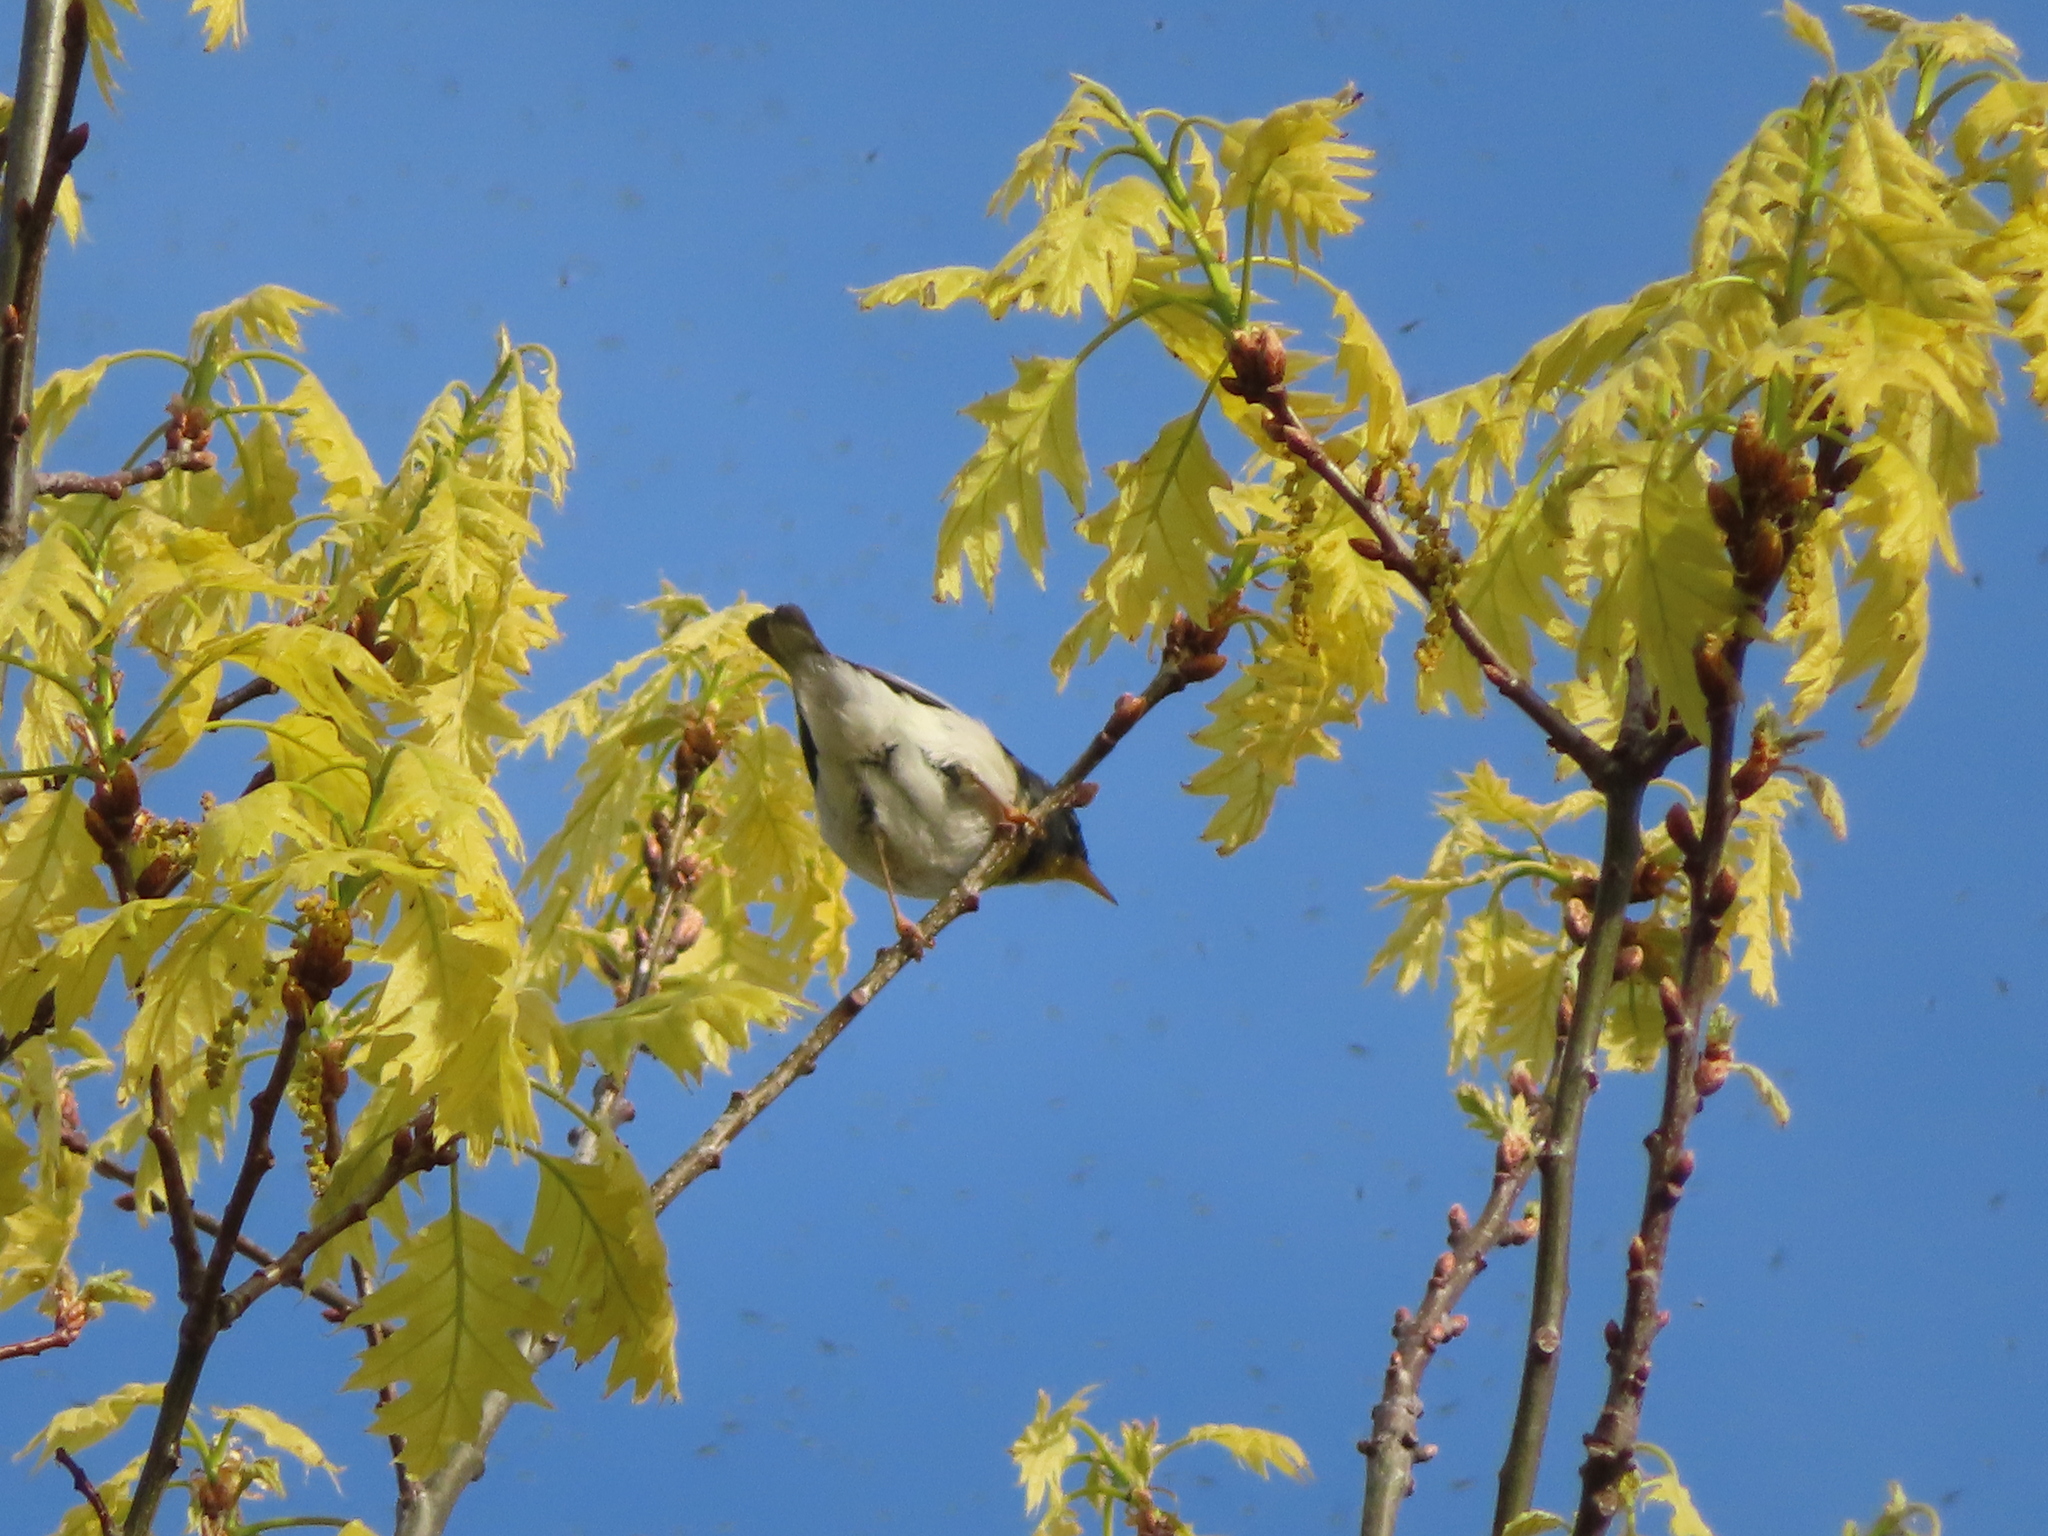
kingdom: Animalia
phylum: Chordata
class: Aves
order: Passeriformes
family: Parulidae
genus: Setophaga
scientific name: Setophaga americana
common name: Northern parula
